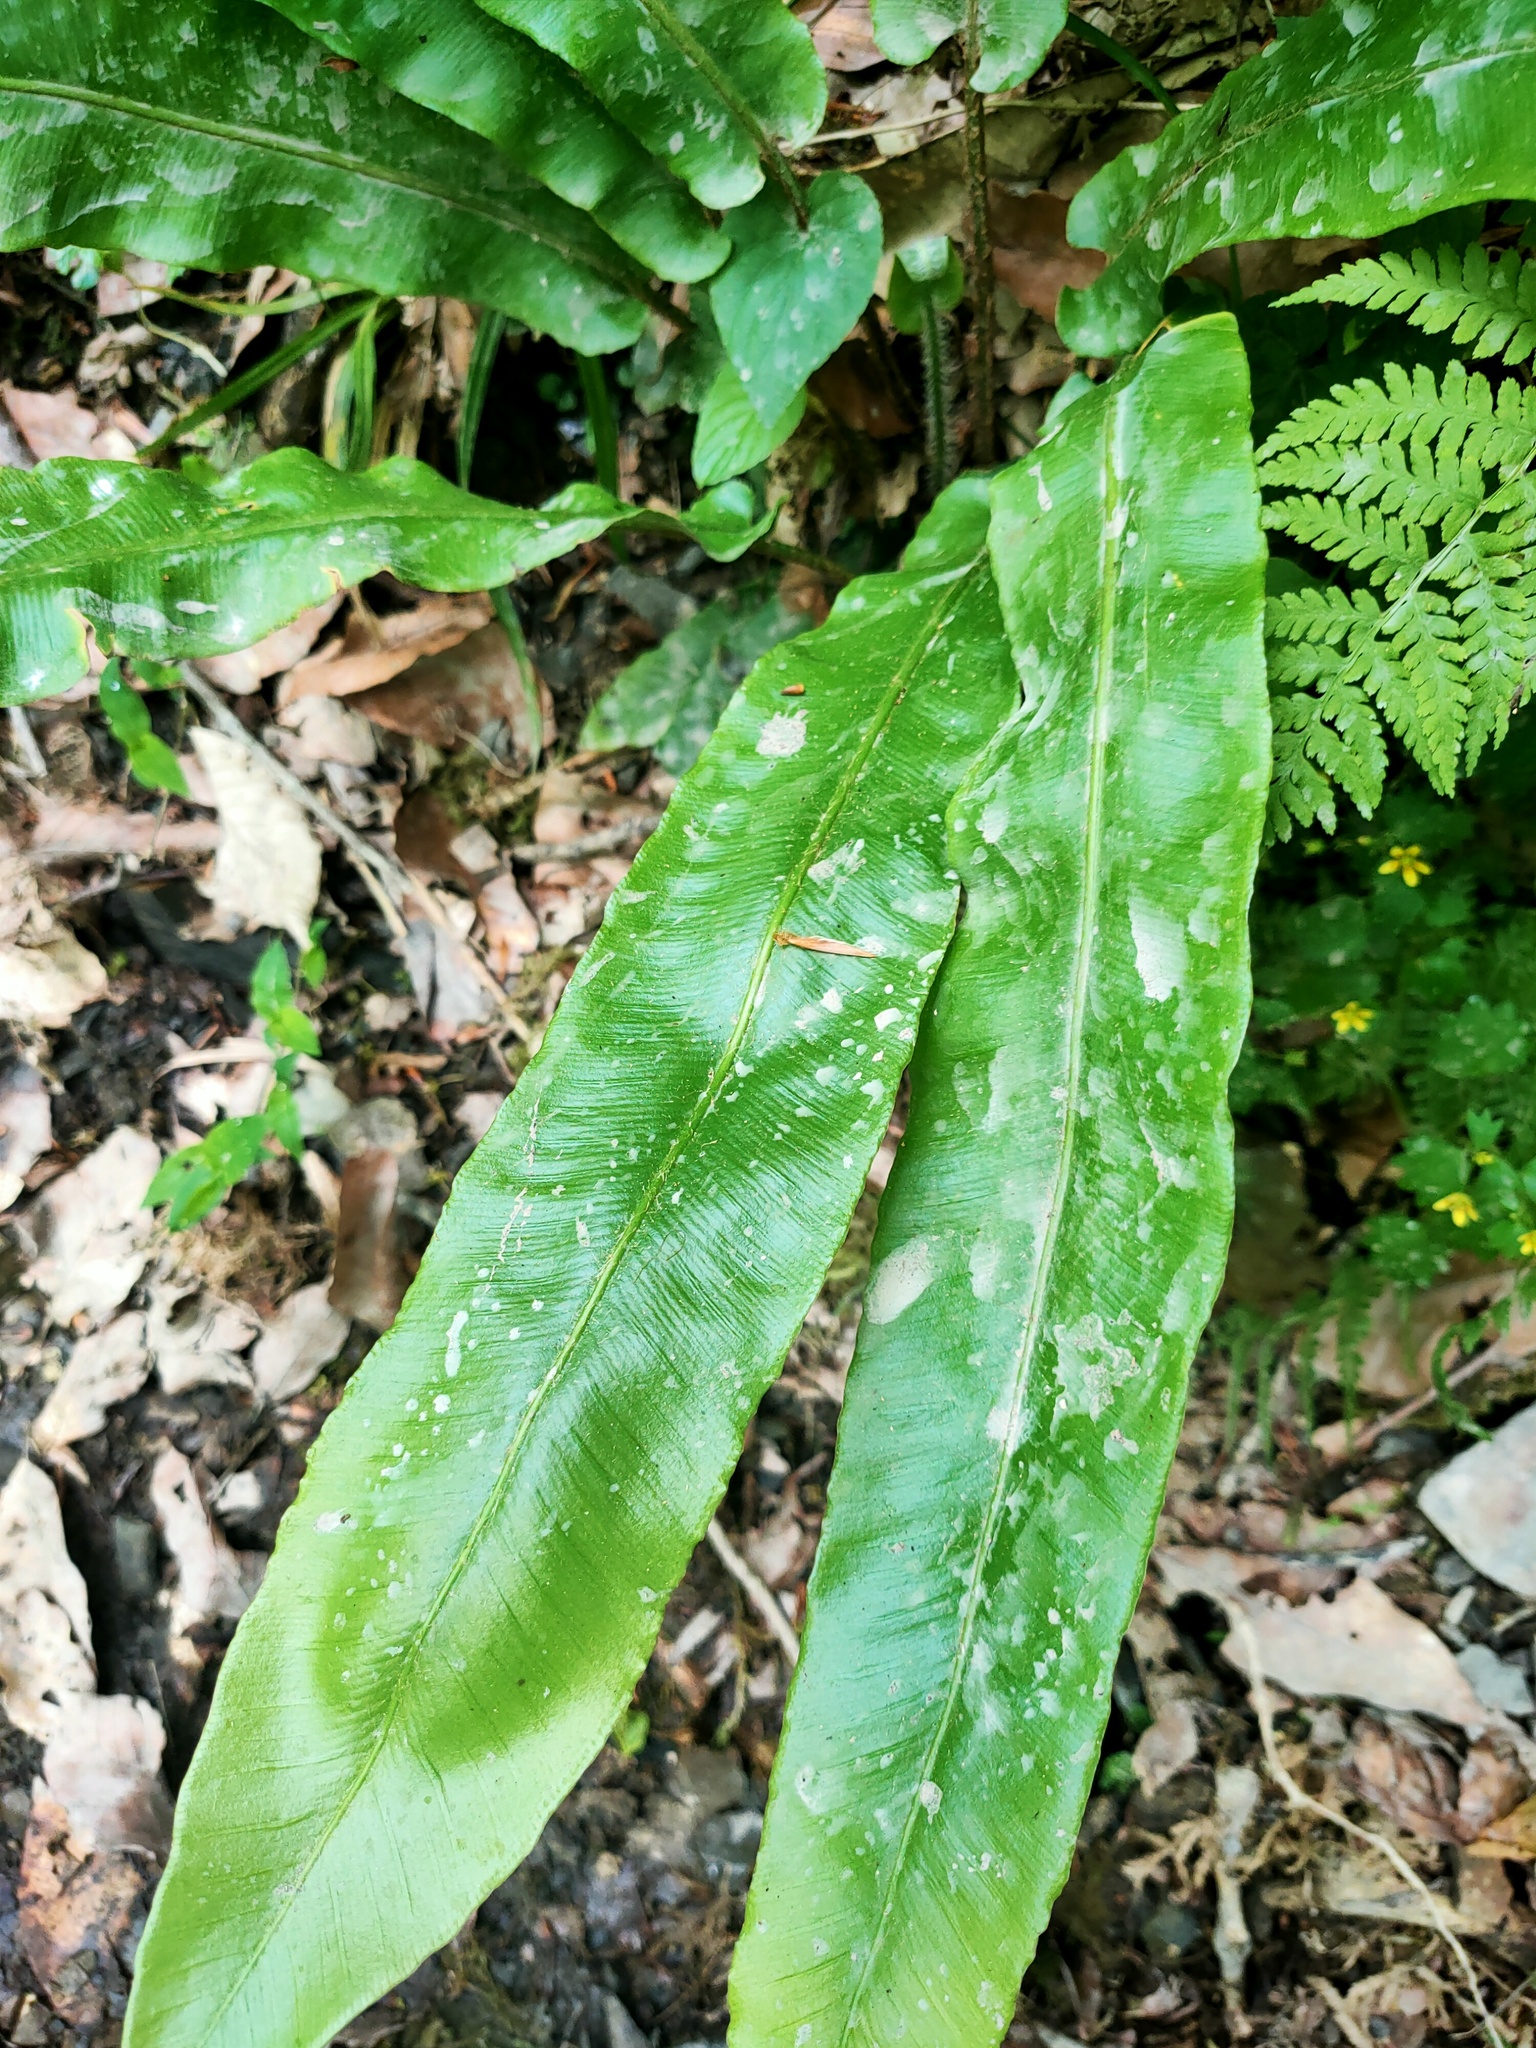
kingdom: Plantae
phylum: Tracheophyta
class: Polypodiopsida
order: Polypodiales
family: Aspleniaceae
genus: Asplenium
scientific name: Asplenium scolopendrium
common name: Hart's-tongue fern
